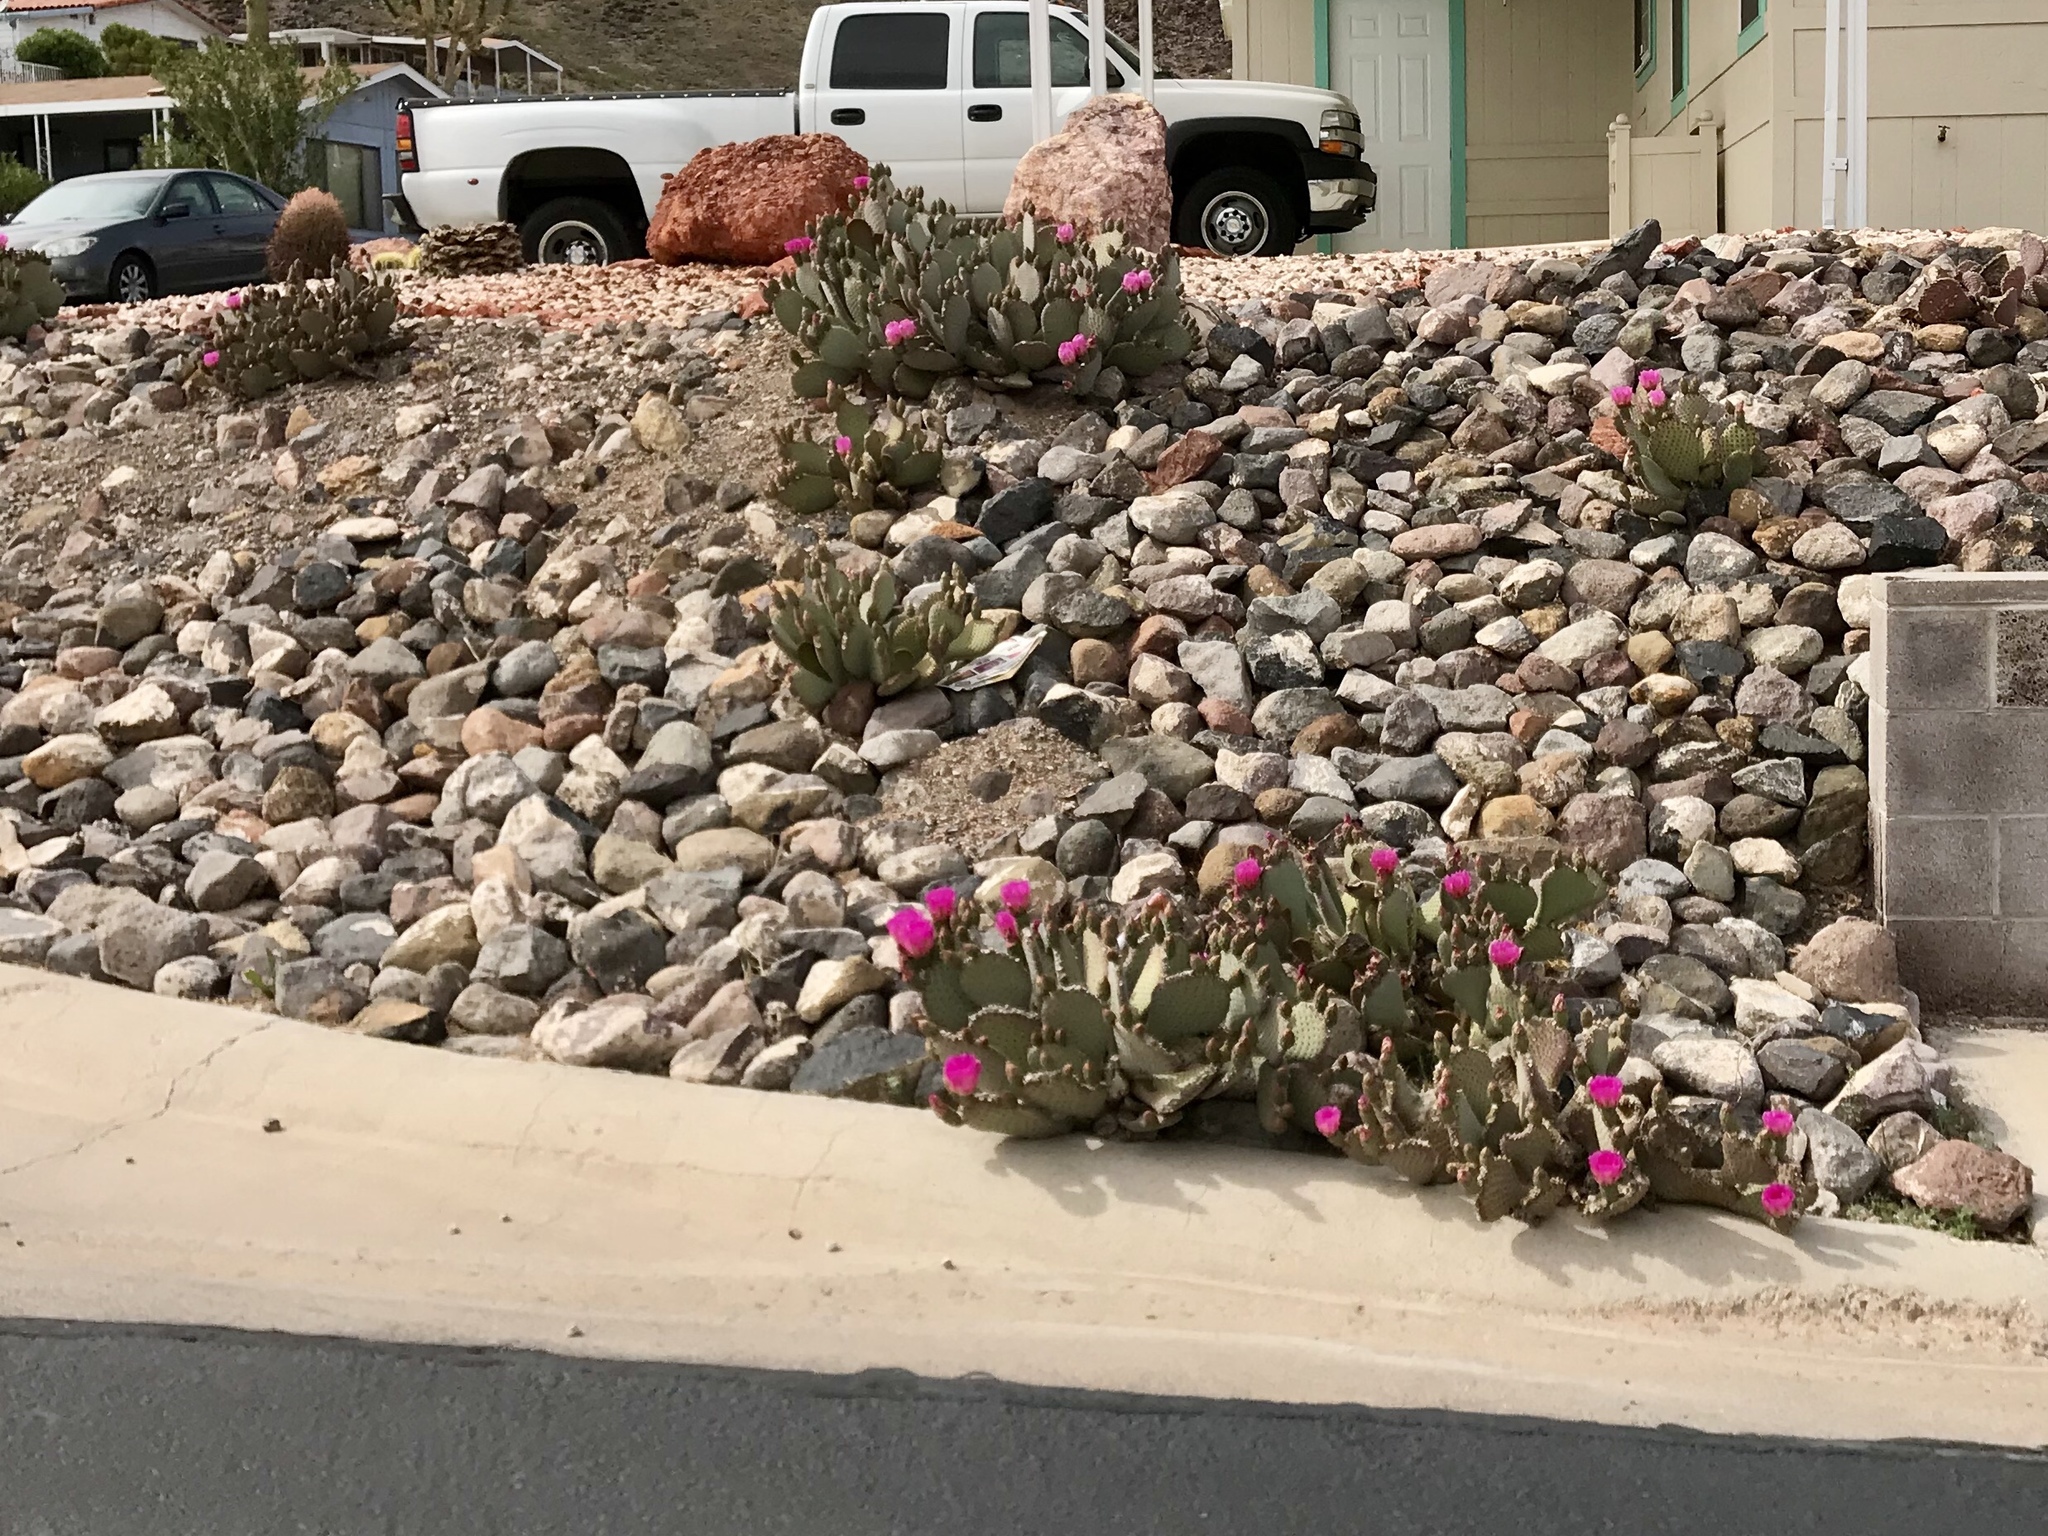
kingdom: Plantae
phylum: Tracheophyta
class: Magnoliopsida
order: Caryophyllales
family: Cactaceae
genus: Opuntia
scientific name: Opuntia basilaris
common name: Beavertail prickly-pear
